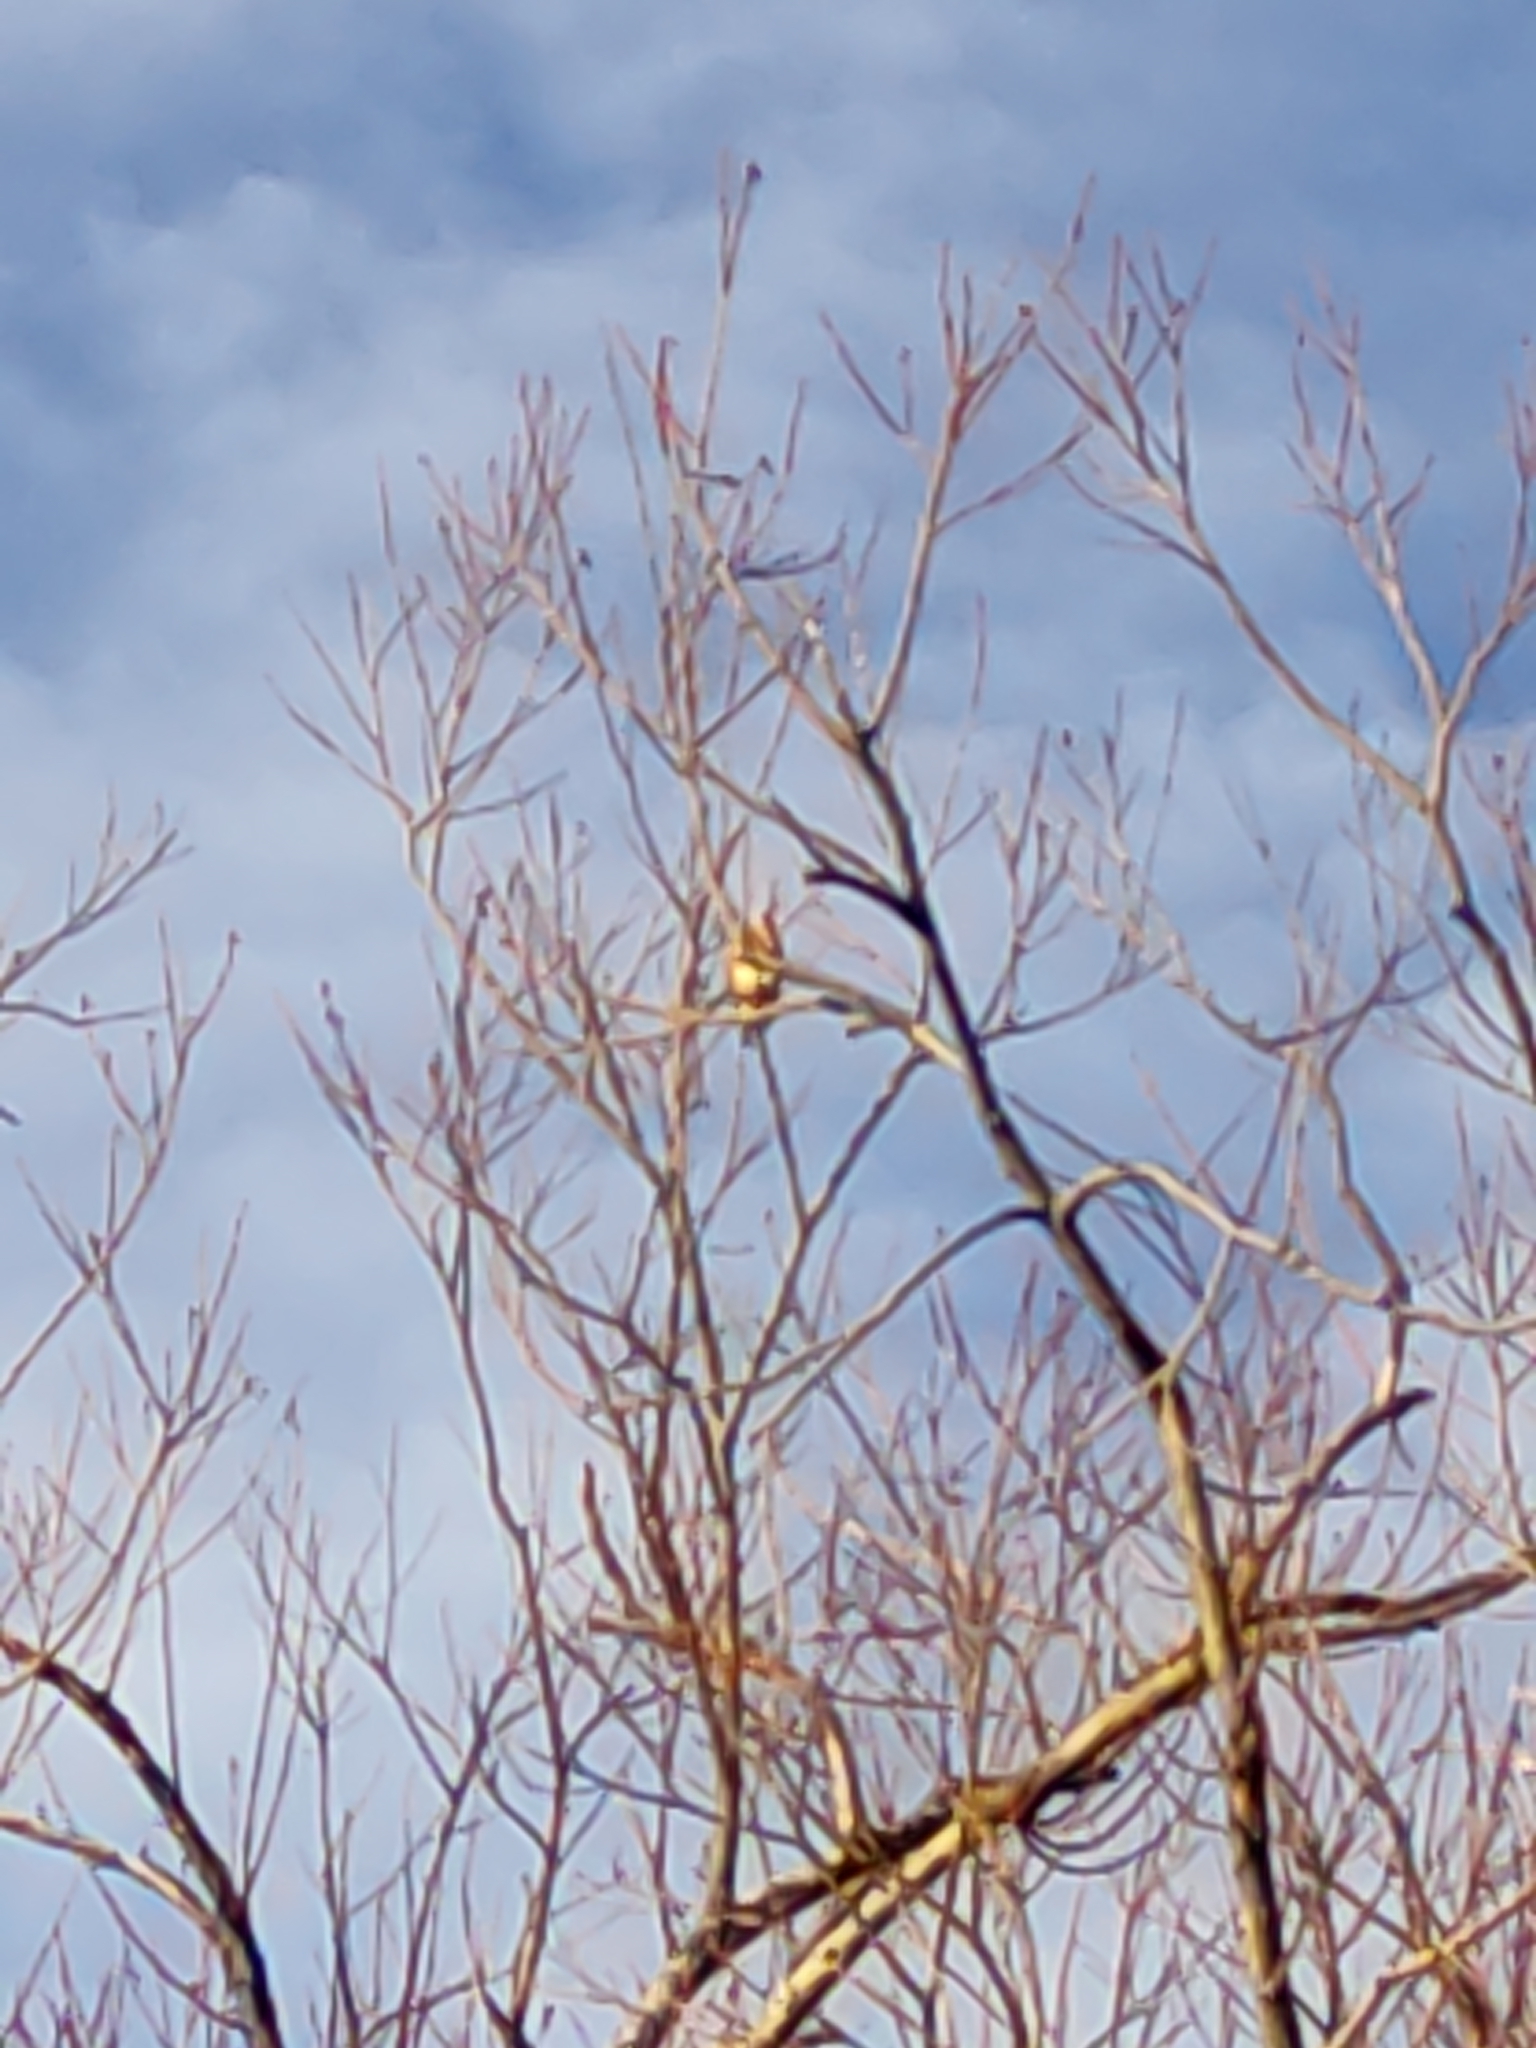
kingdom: Animalia
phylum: Chordata
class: Aves
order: Passeriformes
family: Fringillidae
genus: Carduelis
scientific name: Carduelis carduelis
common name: European goldfinch
